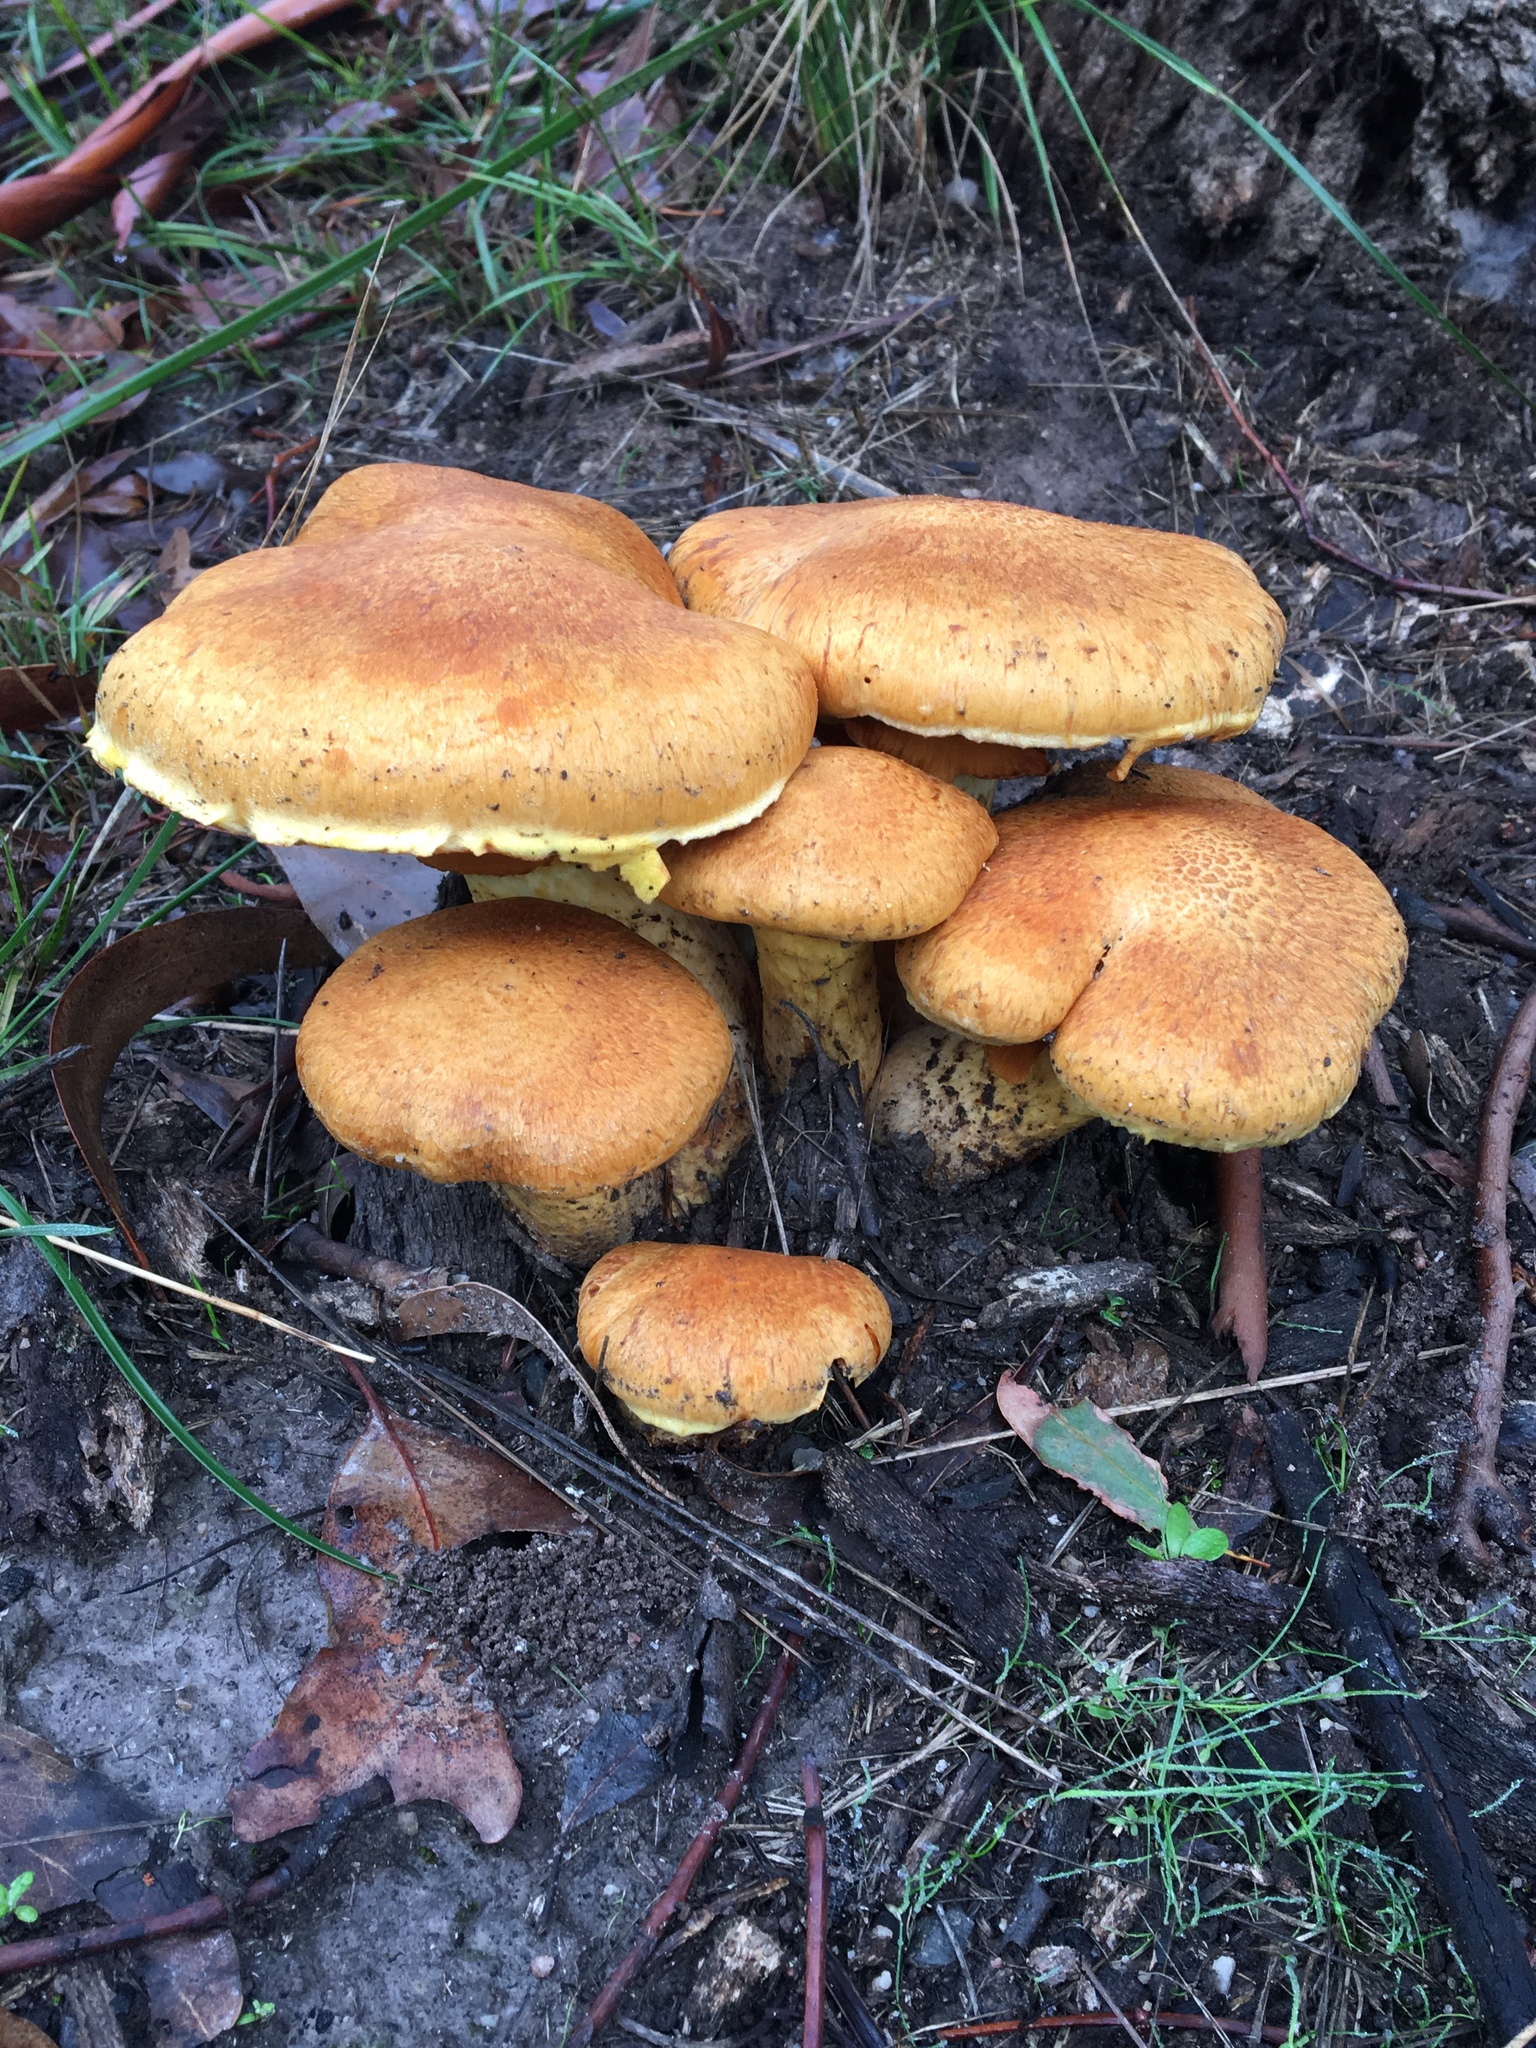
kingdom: Fungi
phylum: Basidiomycota
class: Agaricomycetes
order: Agaricales
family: Hymenogastraceae
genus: Gymnopilus
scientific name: Gymnopilus junonius
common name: Spectacular rustgill
